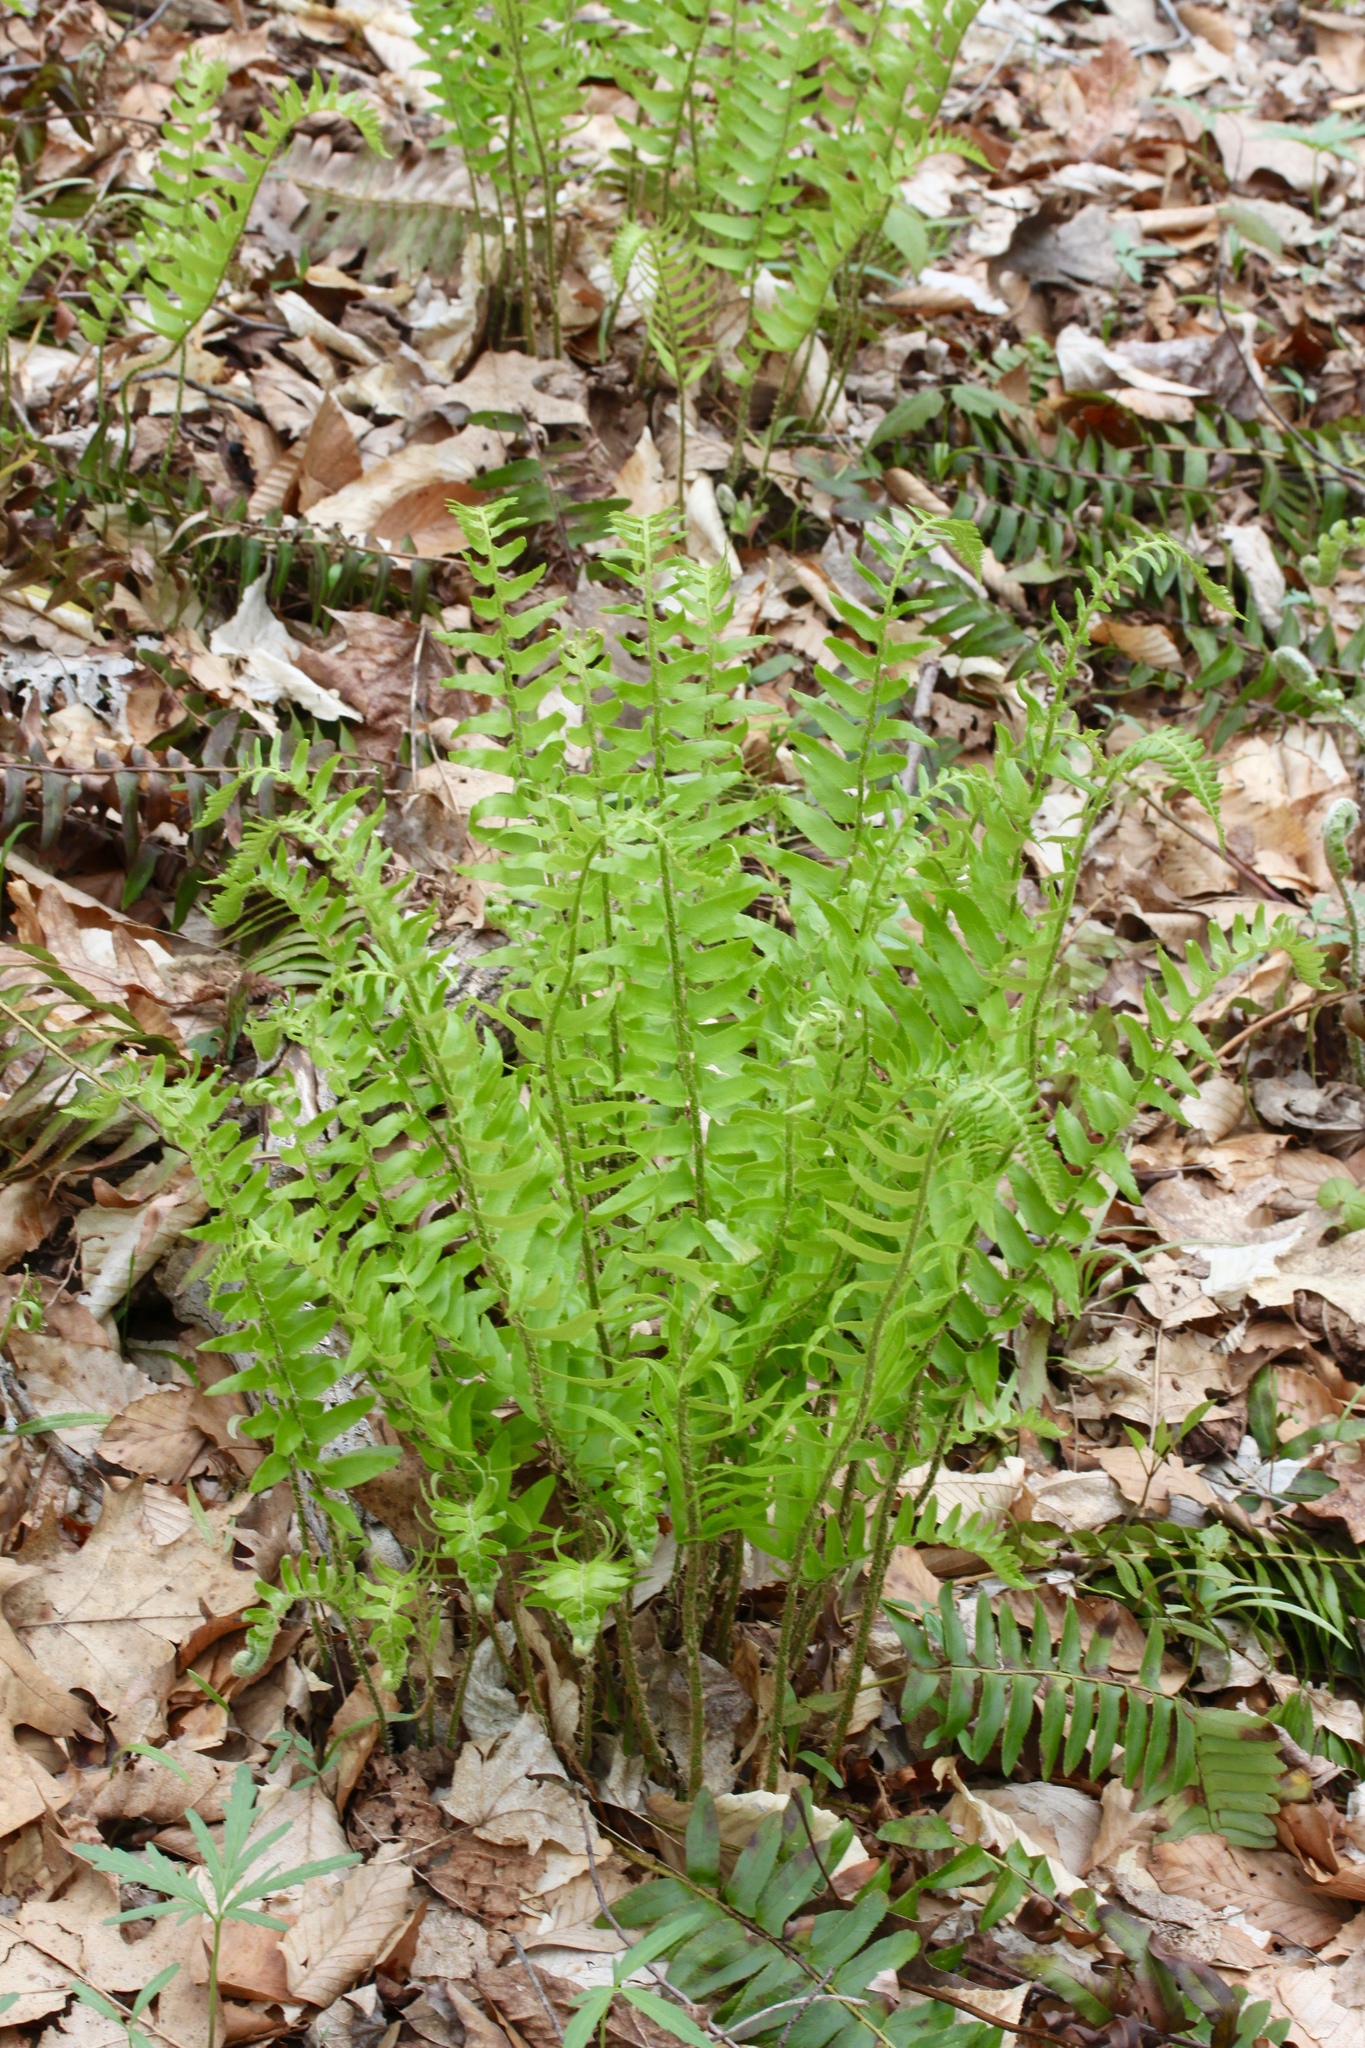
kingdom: Plantae
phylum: Tracheophyta
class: Polypodiopsida
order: Polypodiales
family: Dryopteridaceae
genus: Polystichum
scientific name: Polystichum acrostichoides
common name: Christmas fern
